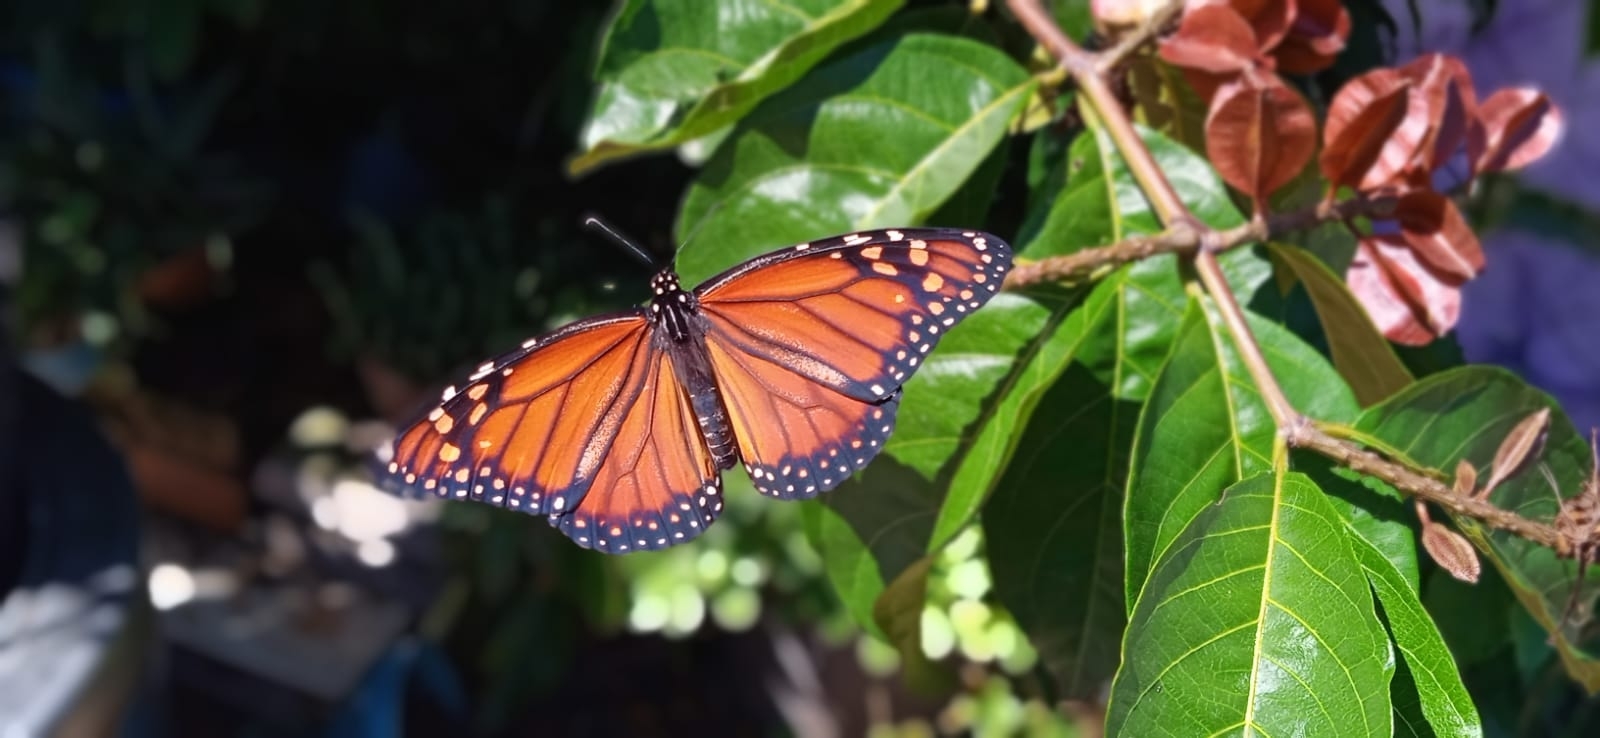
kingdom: Animalia
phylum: Arthropoda
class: Insecta
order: Lepidoptera
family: Nymphalidae
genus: Danaus
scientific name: Danaus erippus
